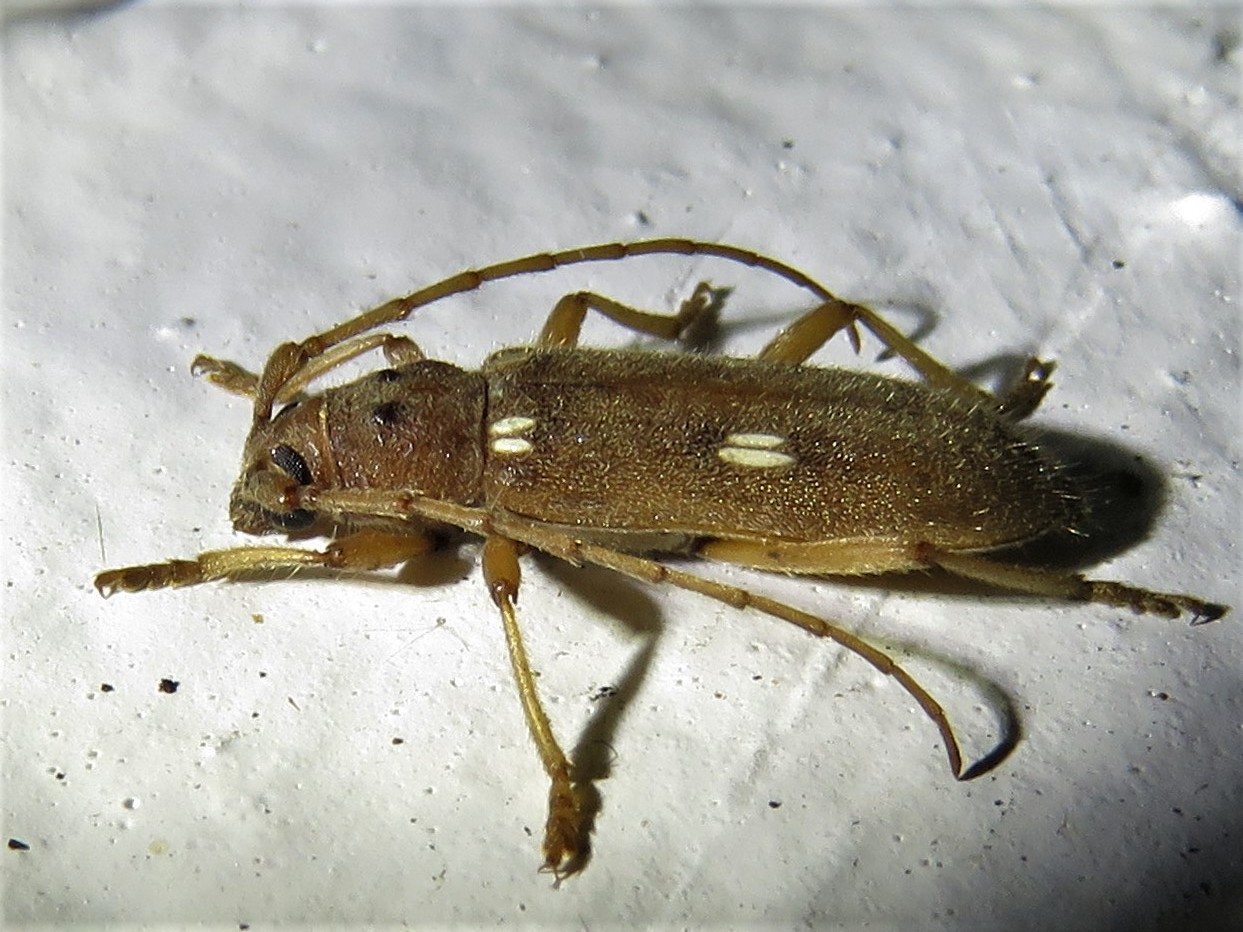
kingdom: Animalia
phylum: Arthropoda
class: Insecta
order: Coleoptera
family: Cerambycidae
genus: Eburia
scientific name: Eburia quadrigeminata
